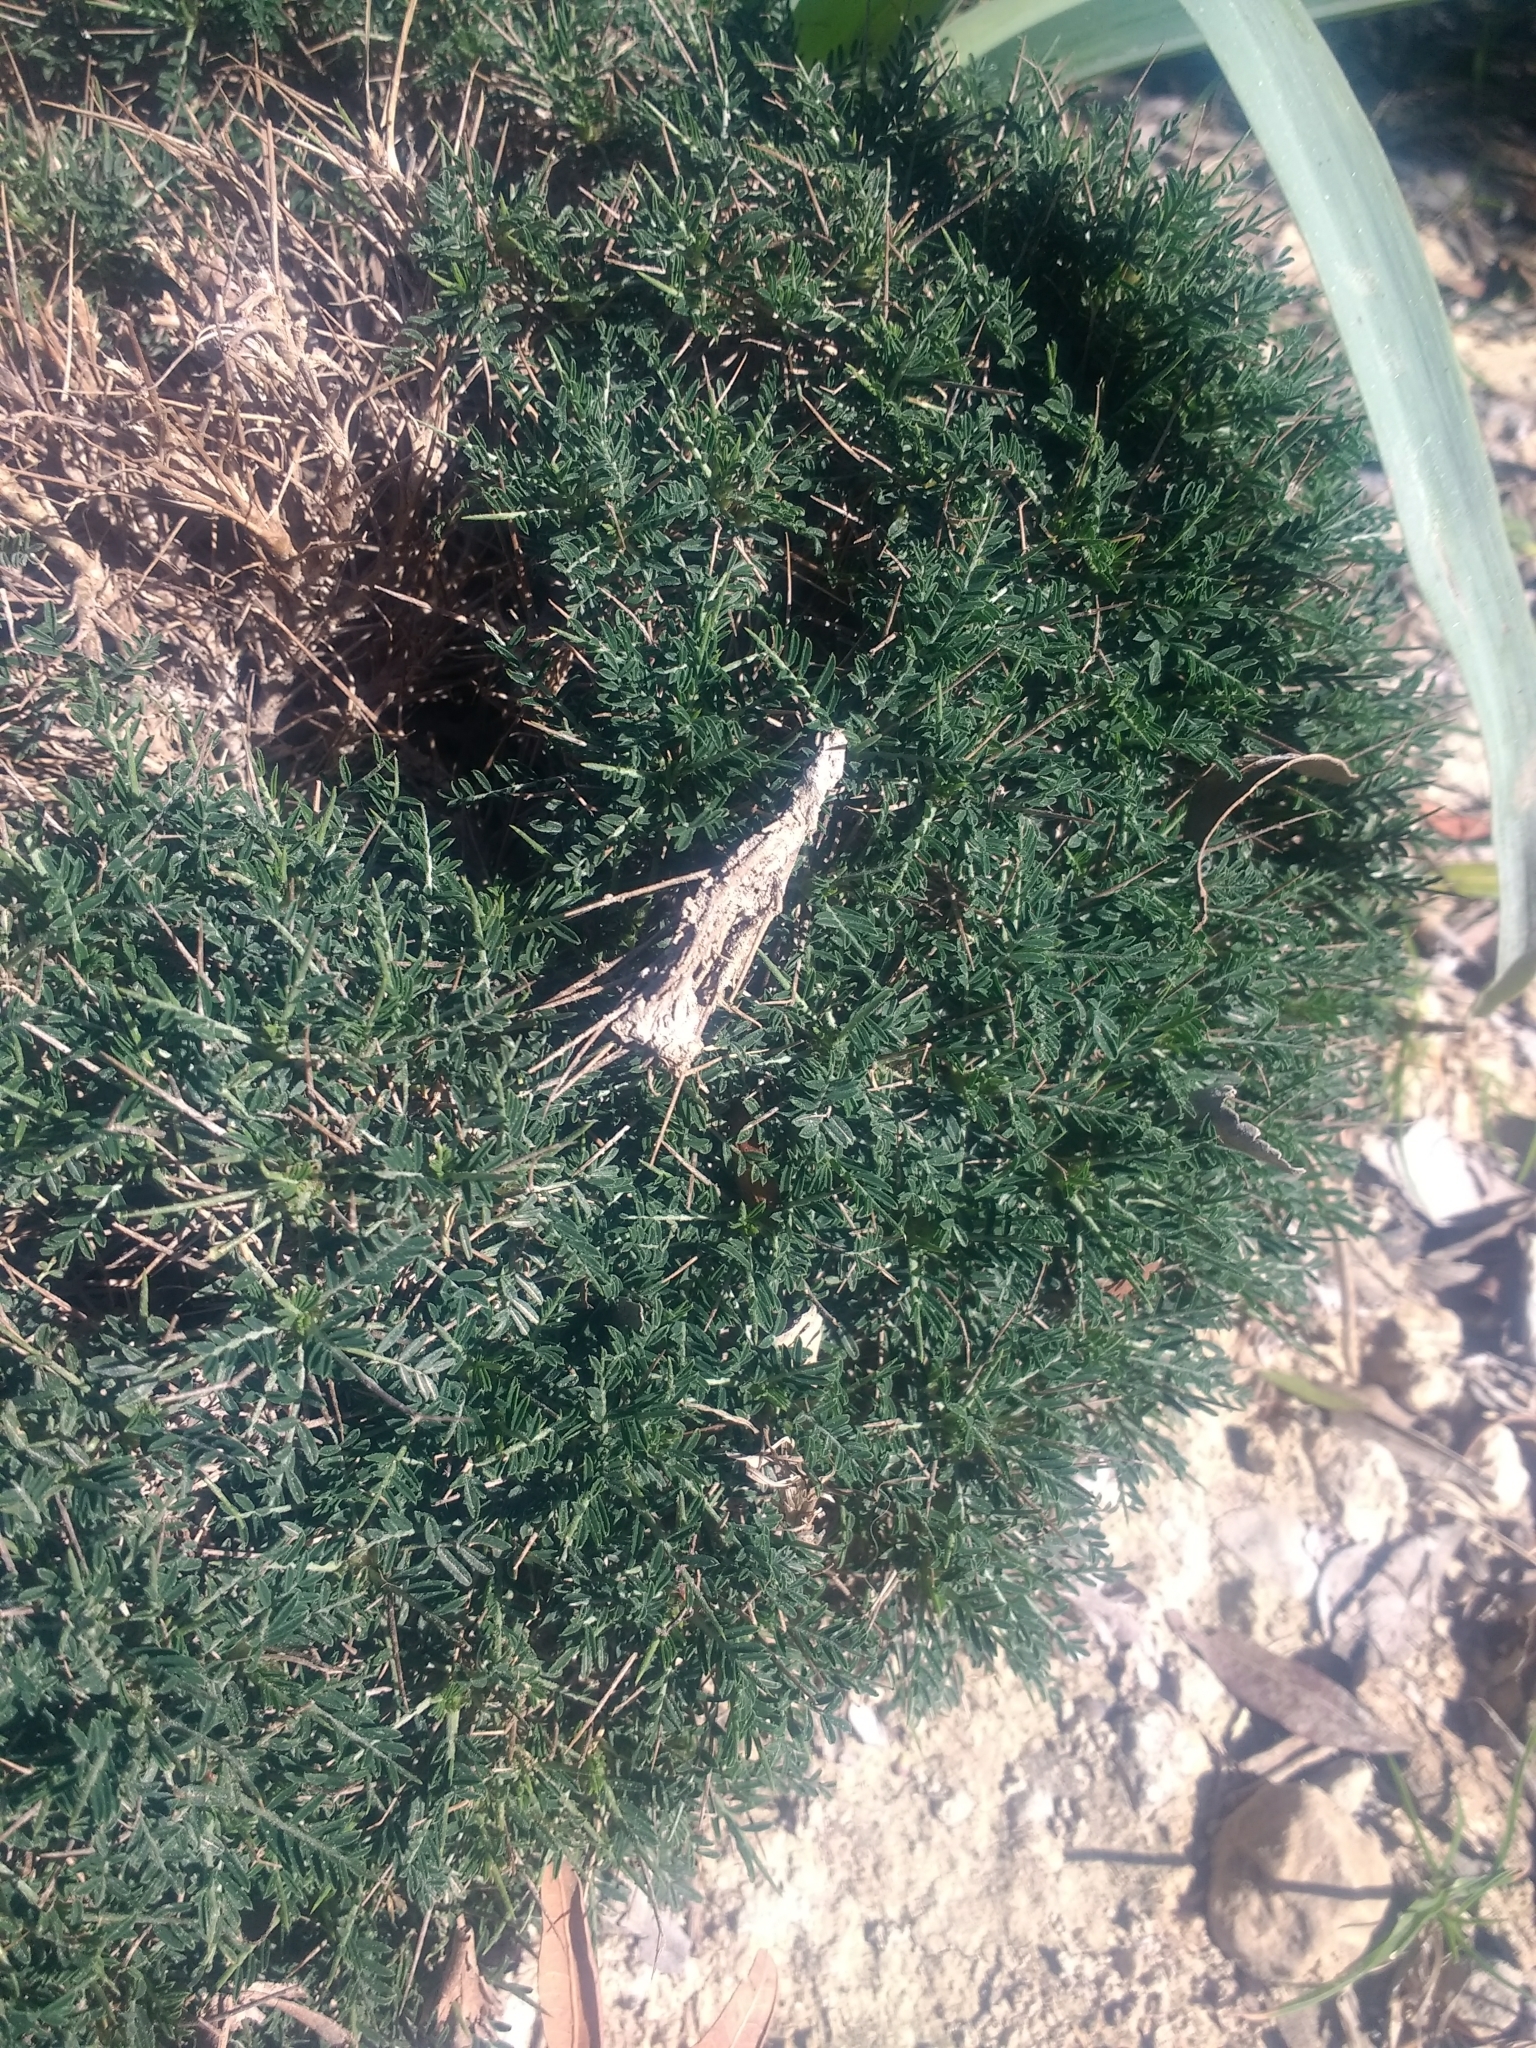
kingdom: Plantae
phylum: Tracheophyta
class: Magnoliopsida
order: Fabales
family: Fabaceae
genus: Astragalus
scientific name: Astragalus balearicus
